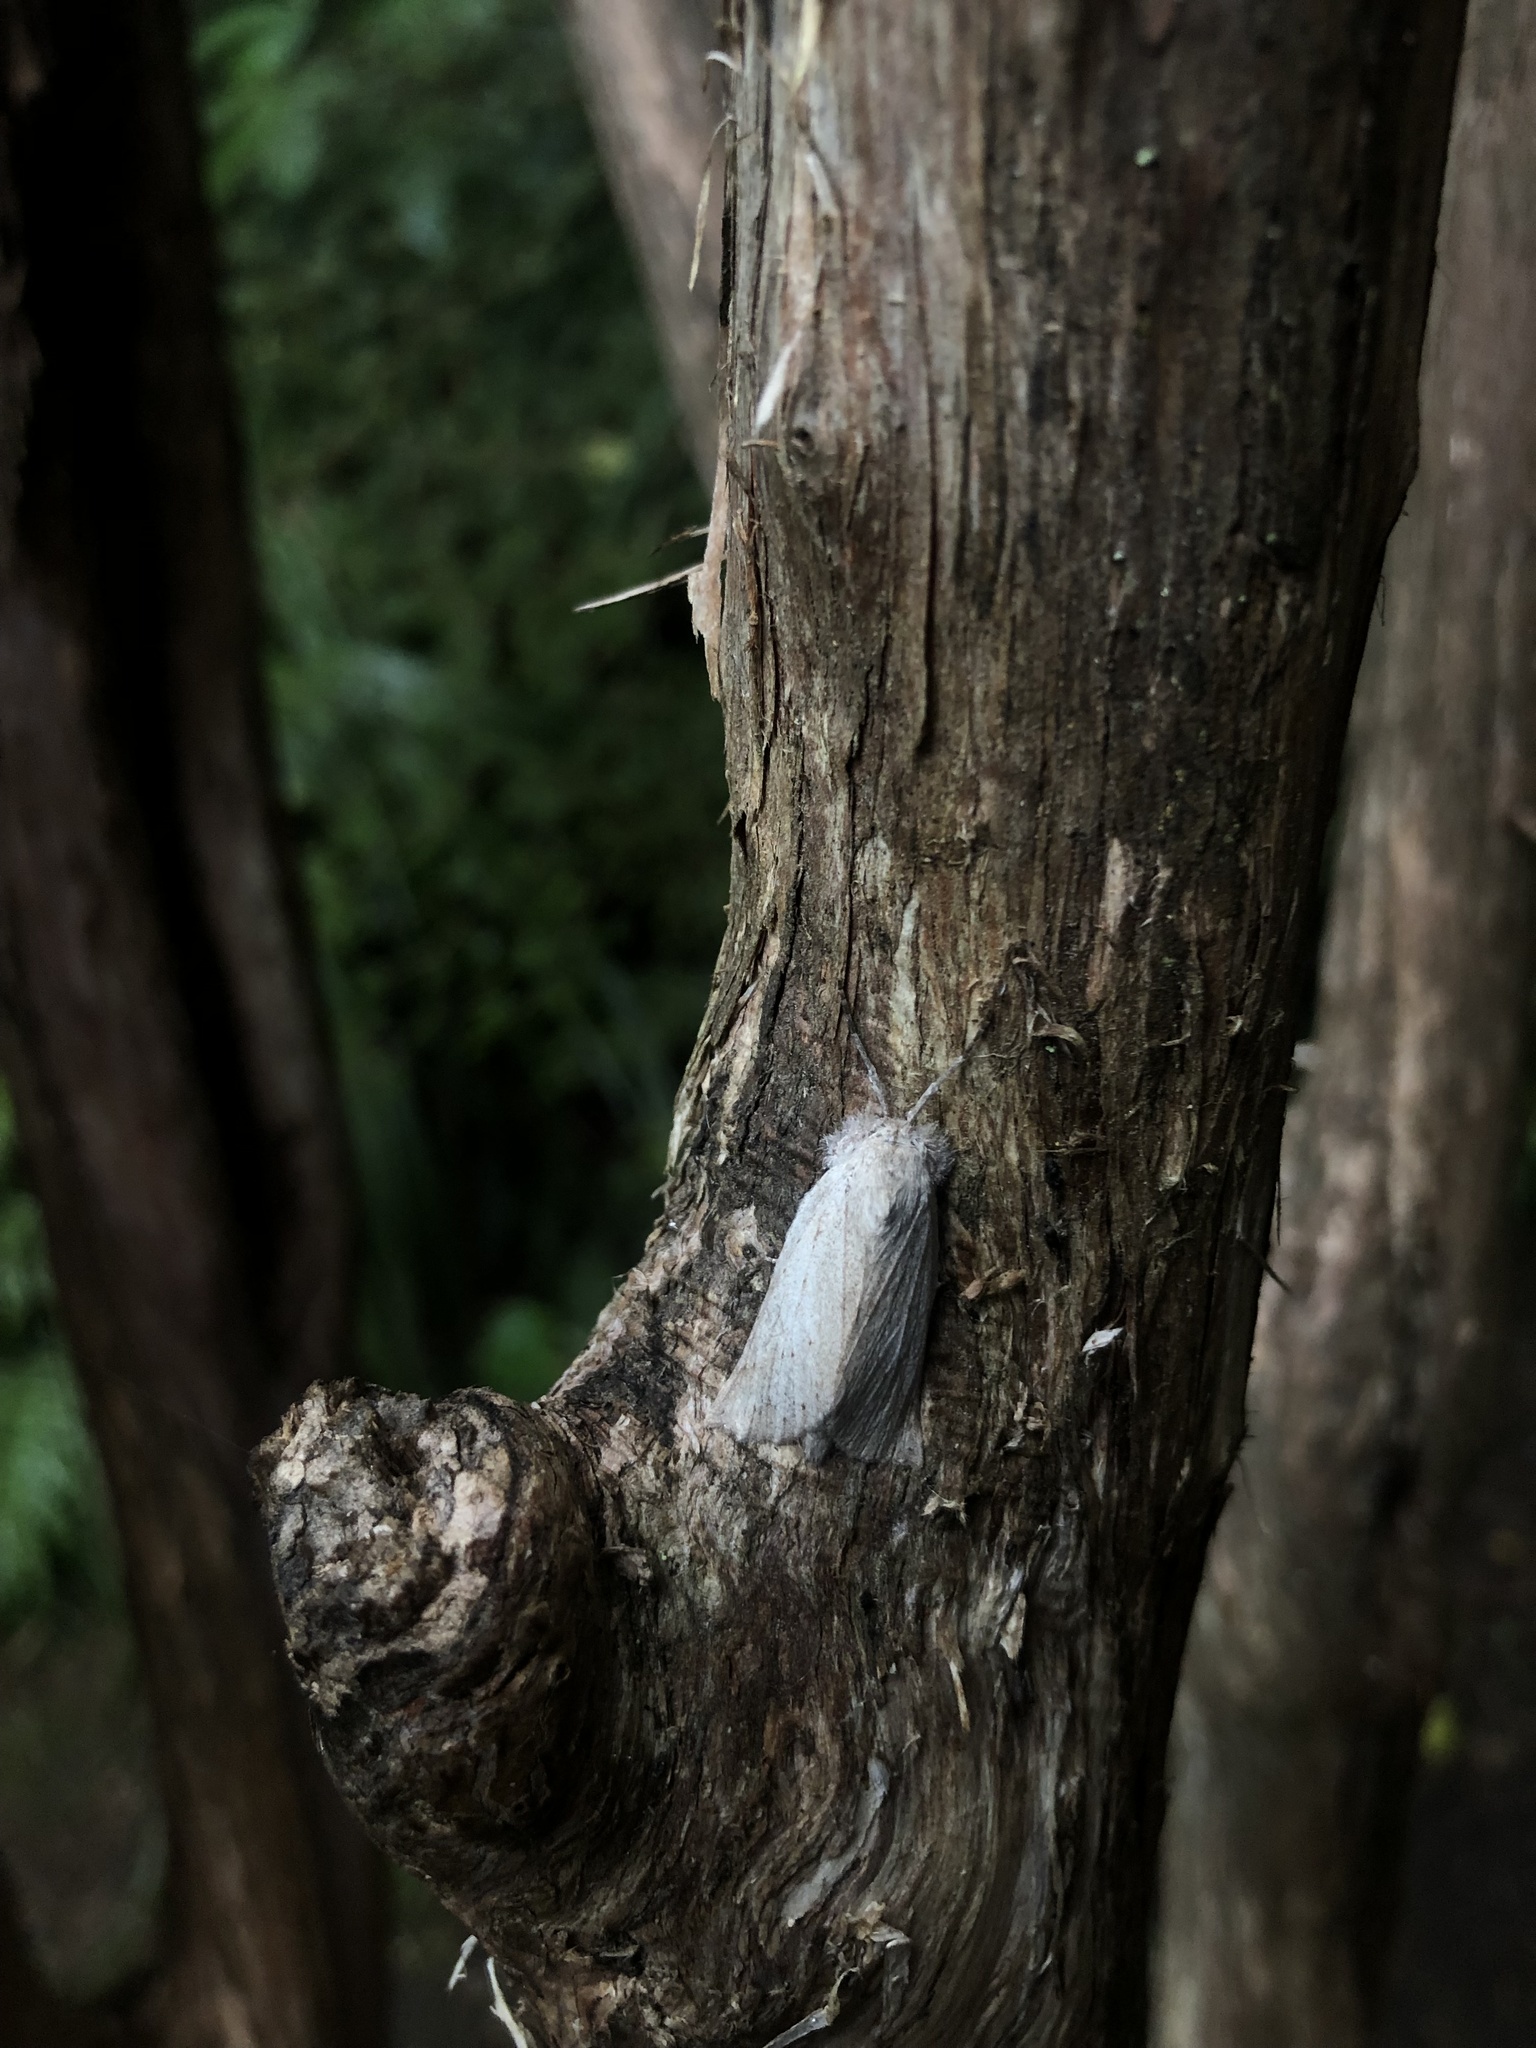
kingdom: Animalia
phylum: Arthropoda
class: Insecta
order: Lepidoptera
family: Geometridae
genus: Declana
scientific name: Declana leptomera
